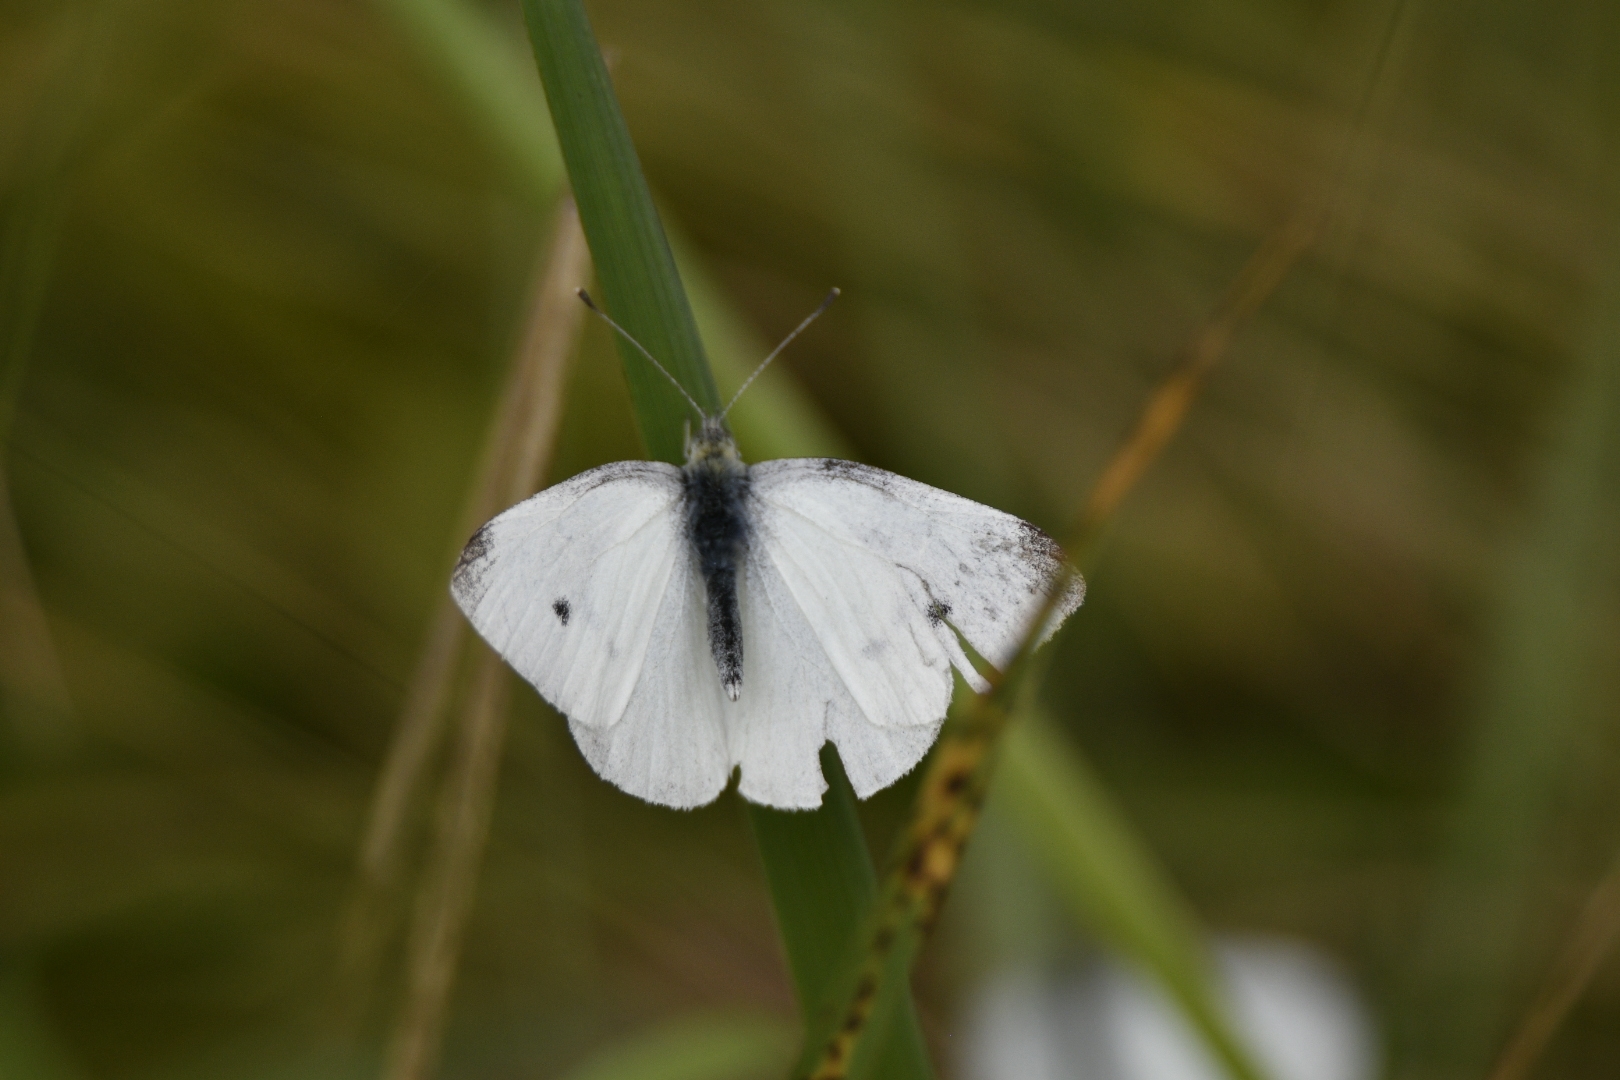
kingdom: Animalia
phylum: Arthropoda
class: Insecta
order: Lepidoptera
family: Pieridae
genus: Pieris
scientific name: Pieris rapae
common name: Small white
